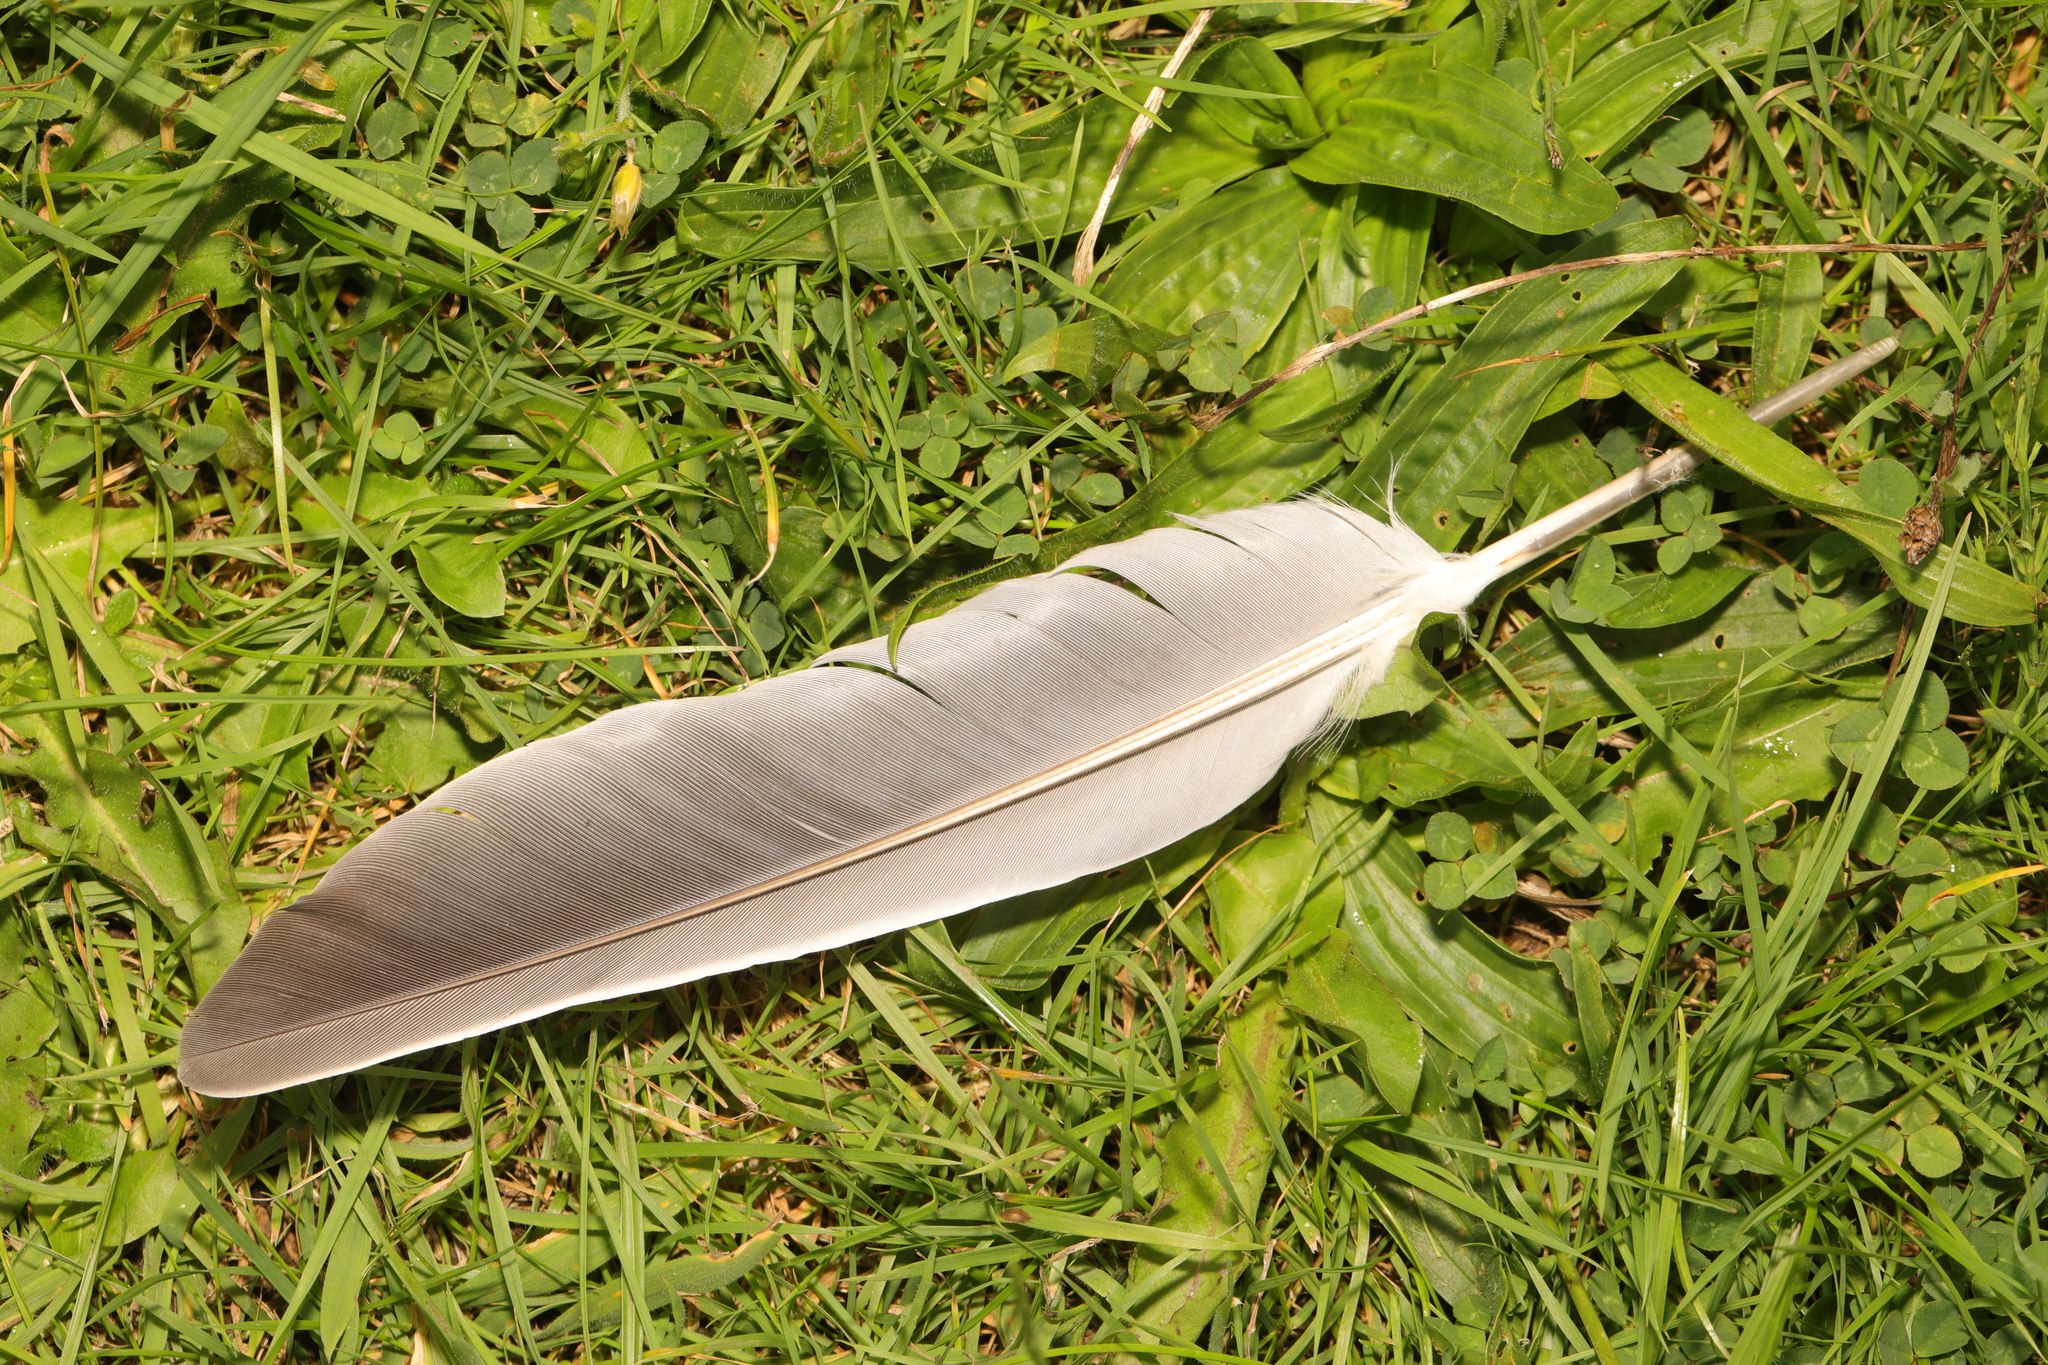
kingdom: Animalia
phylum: Chordata
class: Aves
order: Columbiformes
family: Columbidae
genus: Columba
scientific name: Columba palumbus
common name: Common wood pigeon
